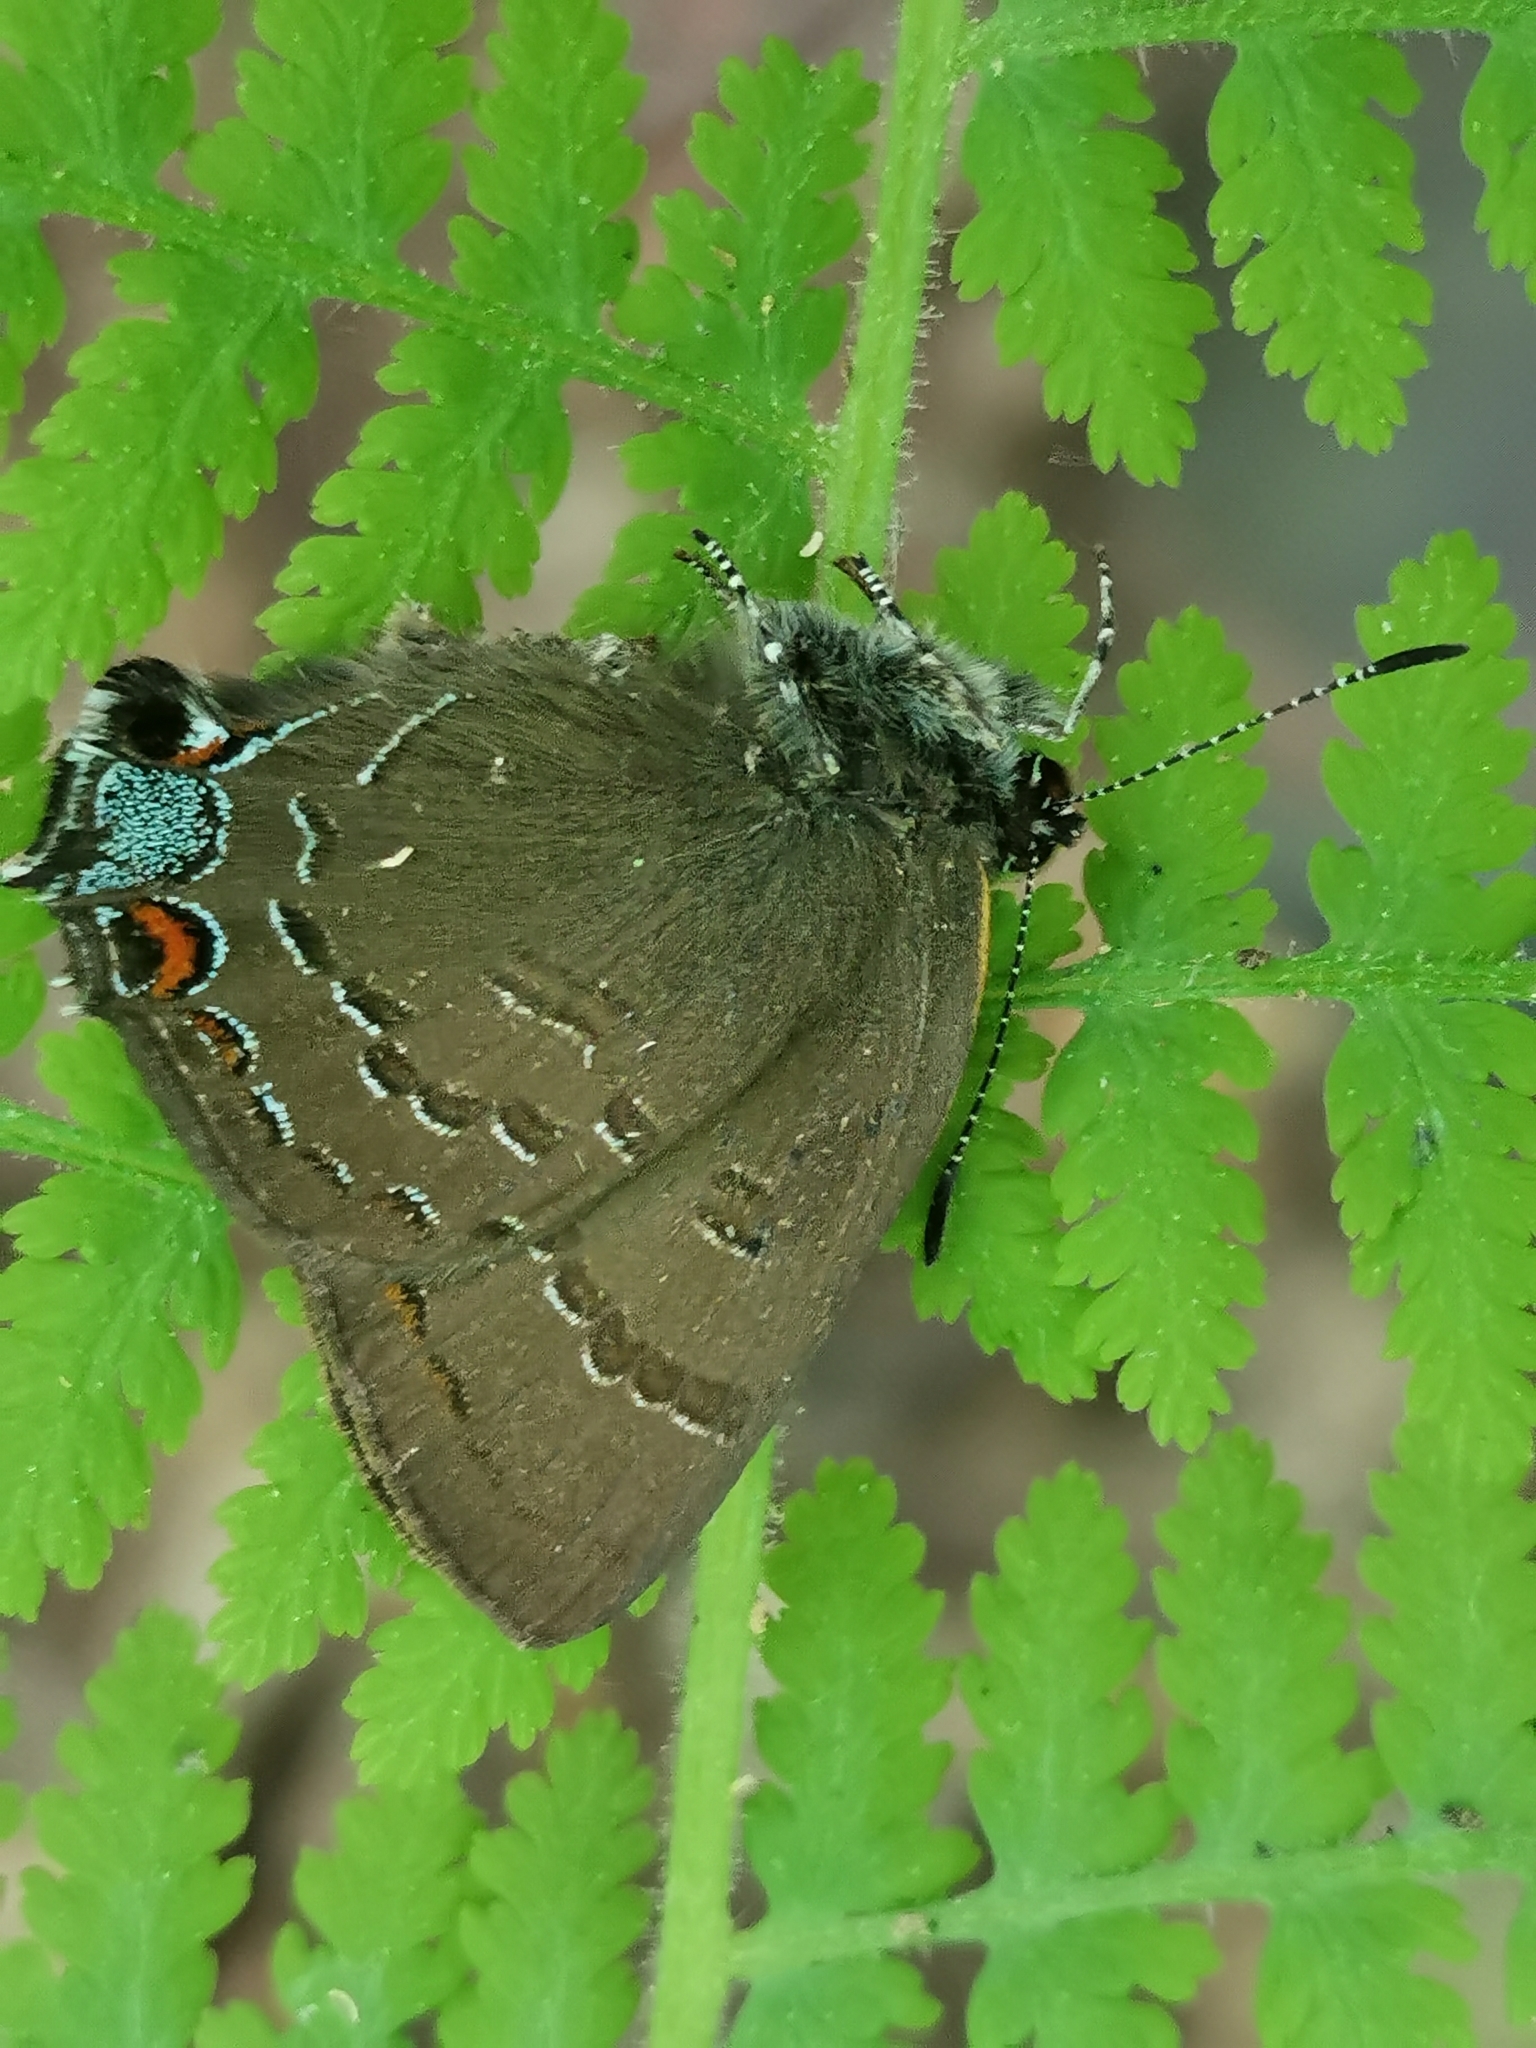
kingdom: Animalia
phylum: Arthropoda
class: Insecta
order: Lepidoptera
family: Lycaenidae
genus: Satyrium
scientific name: Satyrium calanus
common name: Banded hairstreak
